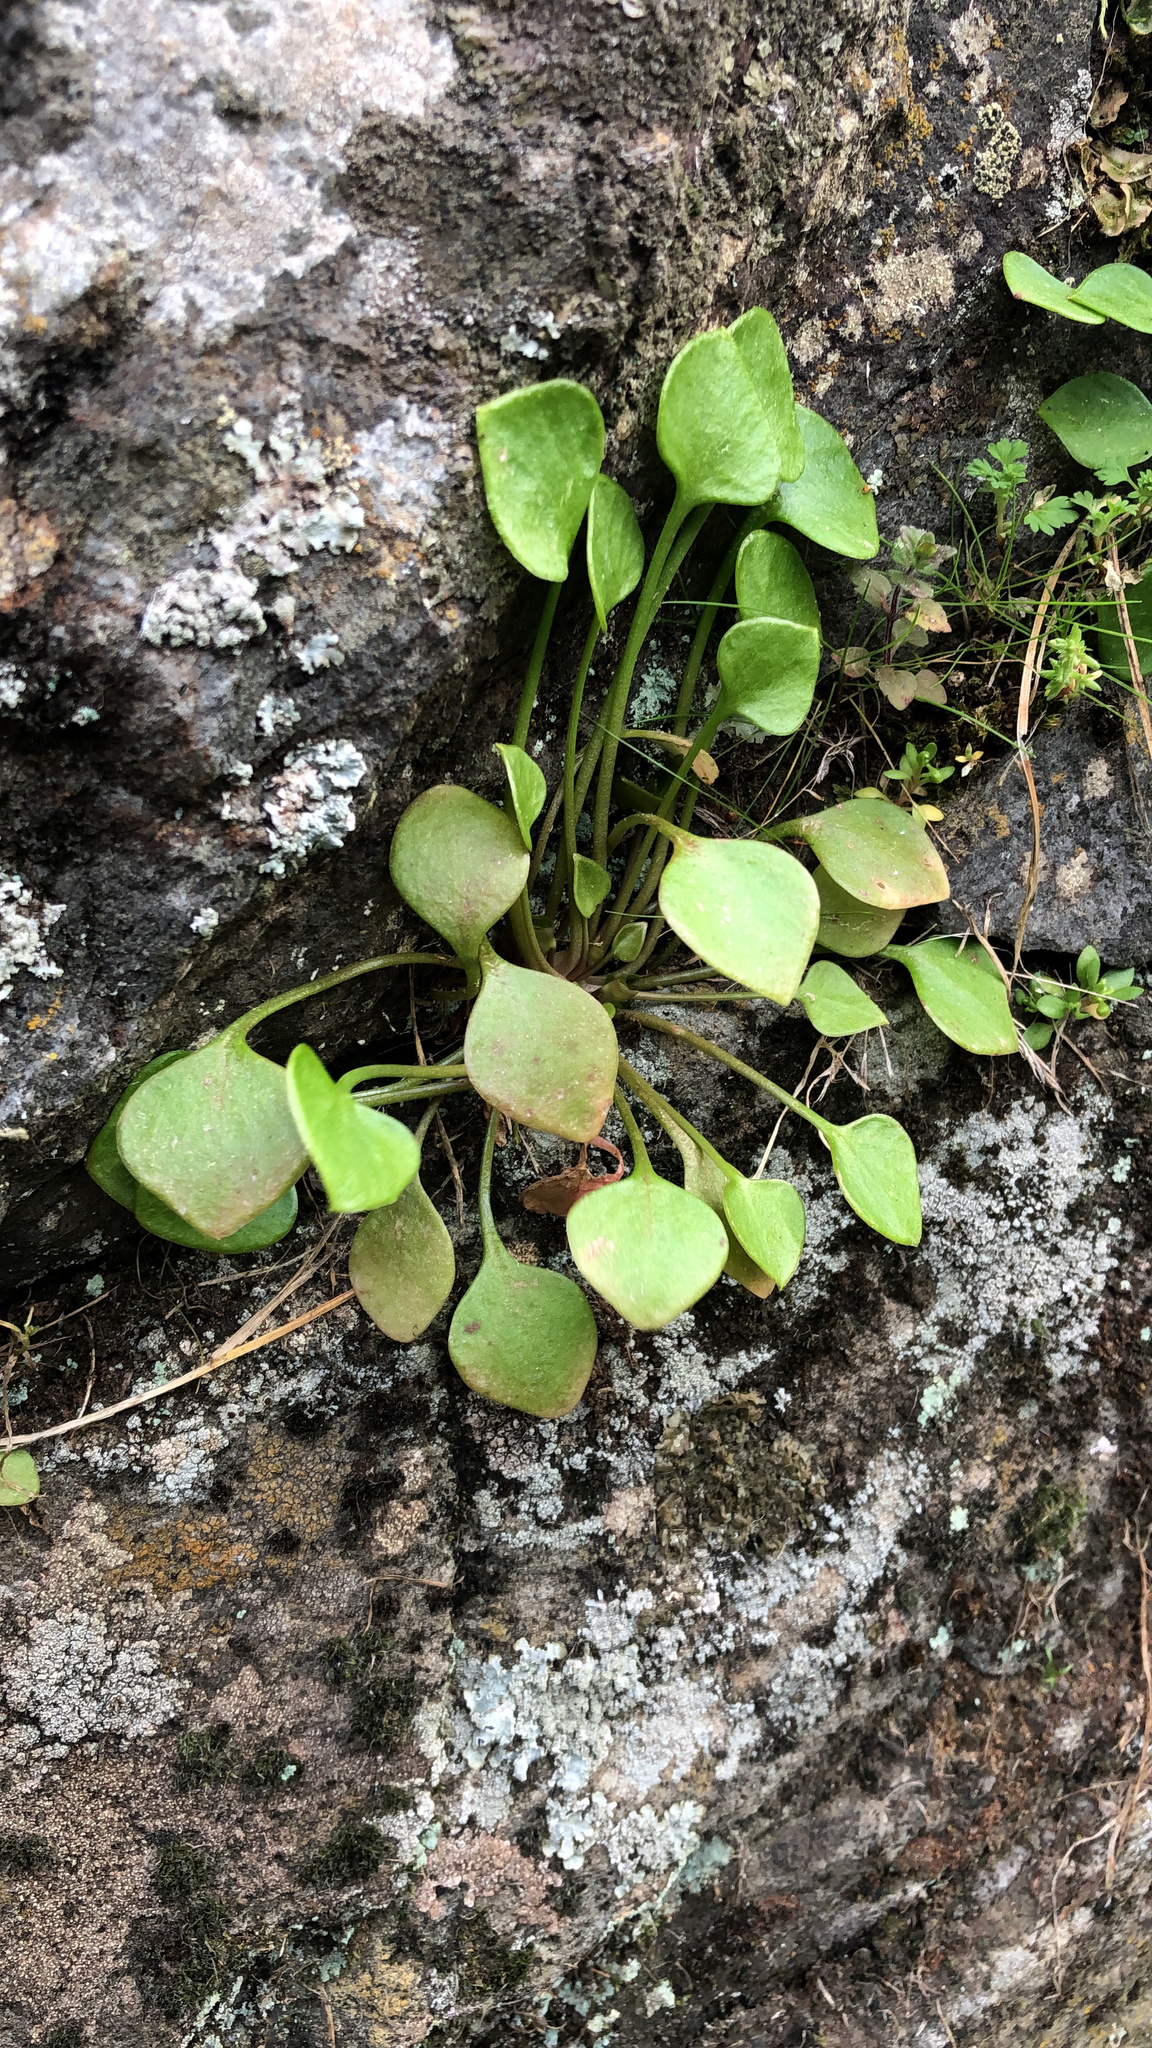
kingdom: Plantae
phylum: Tracheophyta
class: Magnoliopsida
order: Caryophyllales
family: Montiaceae
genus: Claytonia
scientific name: Claytonia perfoliata
